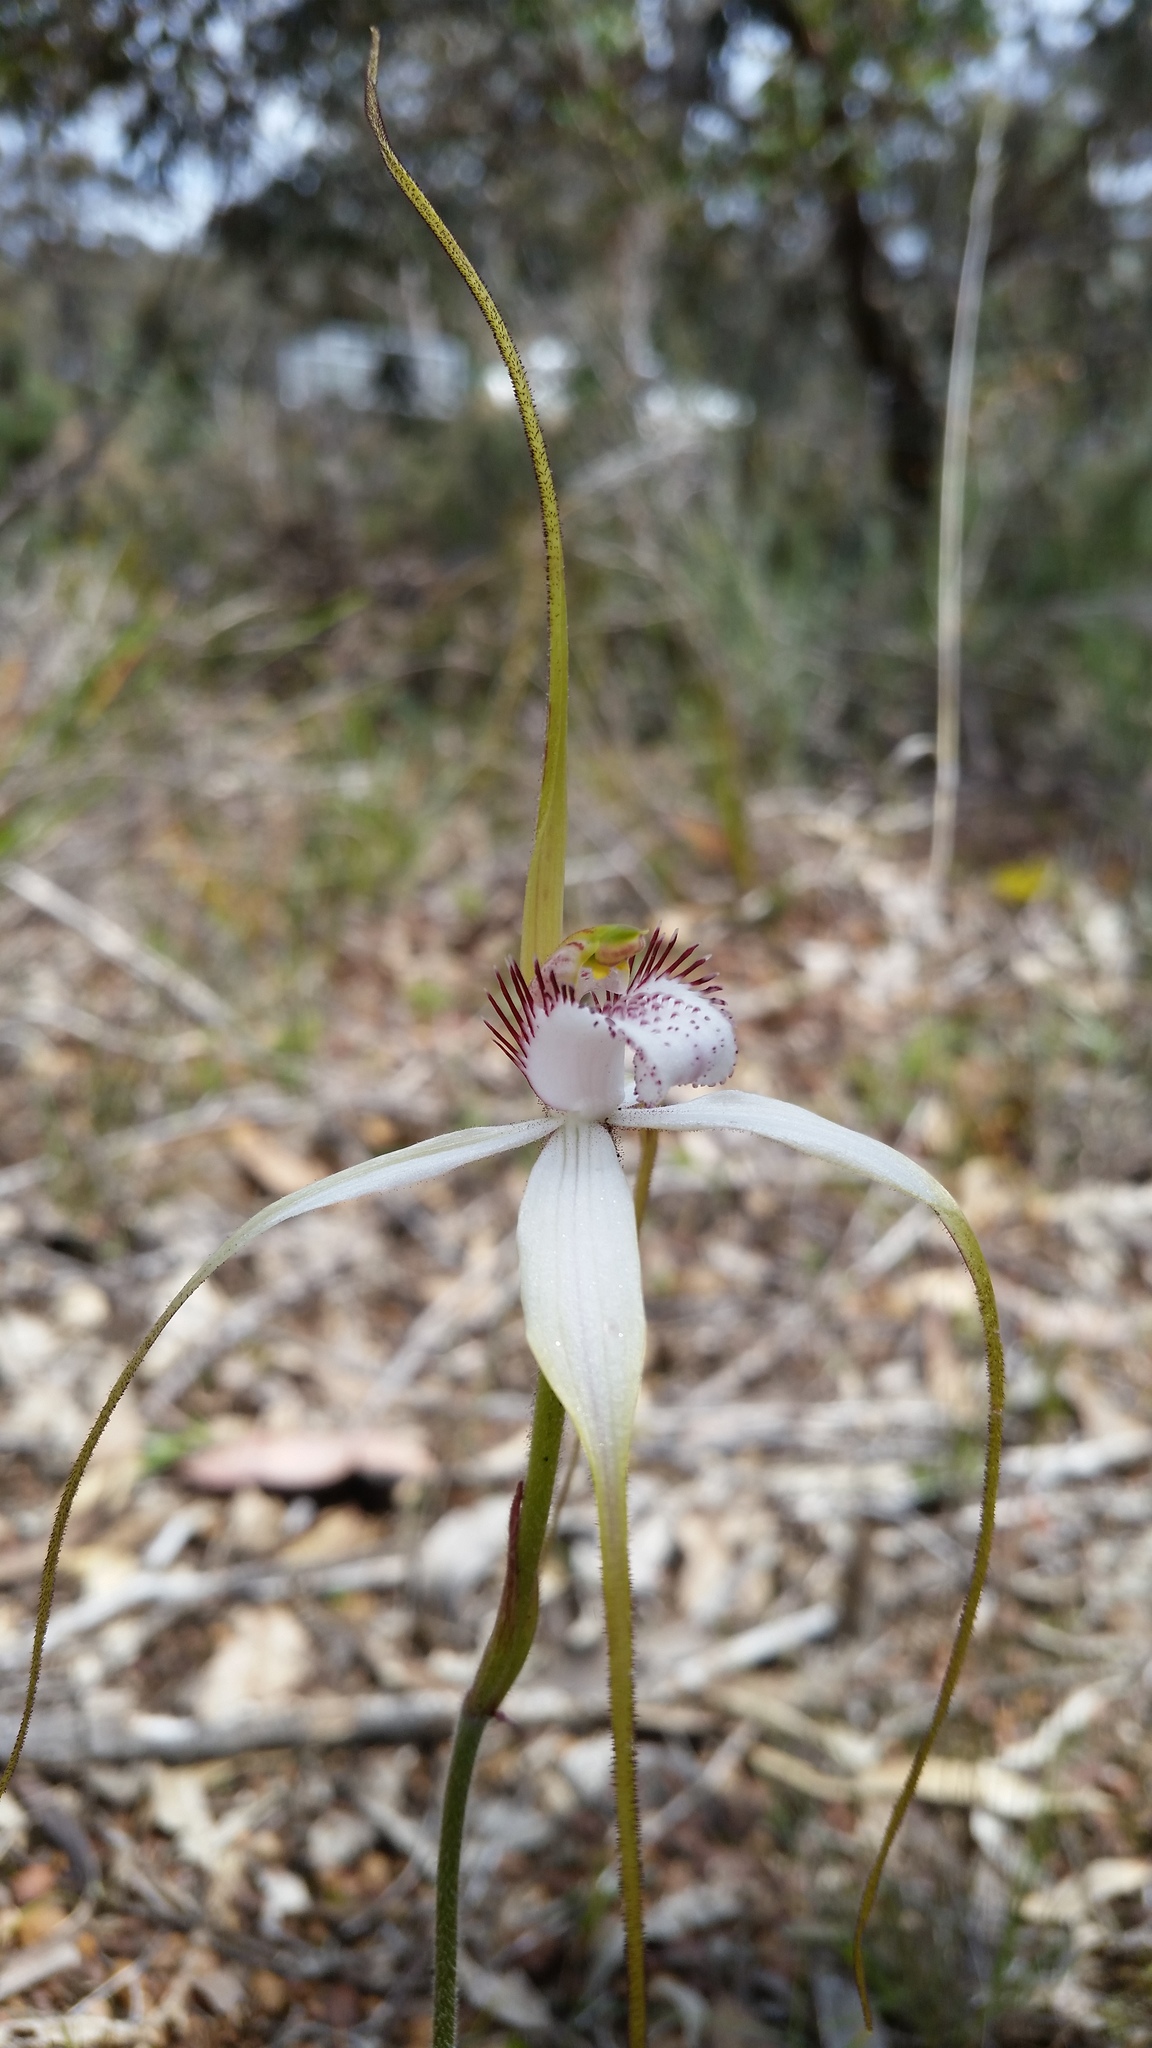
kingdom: Plantae
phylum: Tracheophyta
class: Liliopsida
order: Asparagales
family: Orchidaceae
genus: Caladenia
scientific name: Caladenia longicauda
